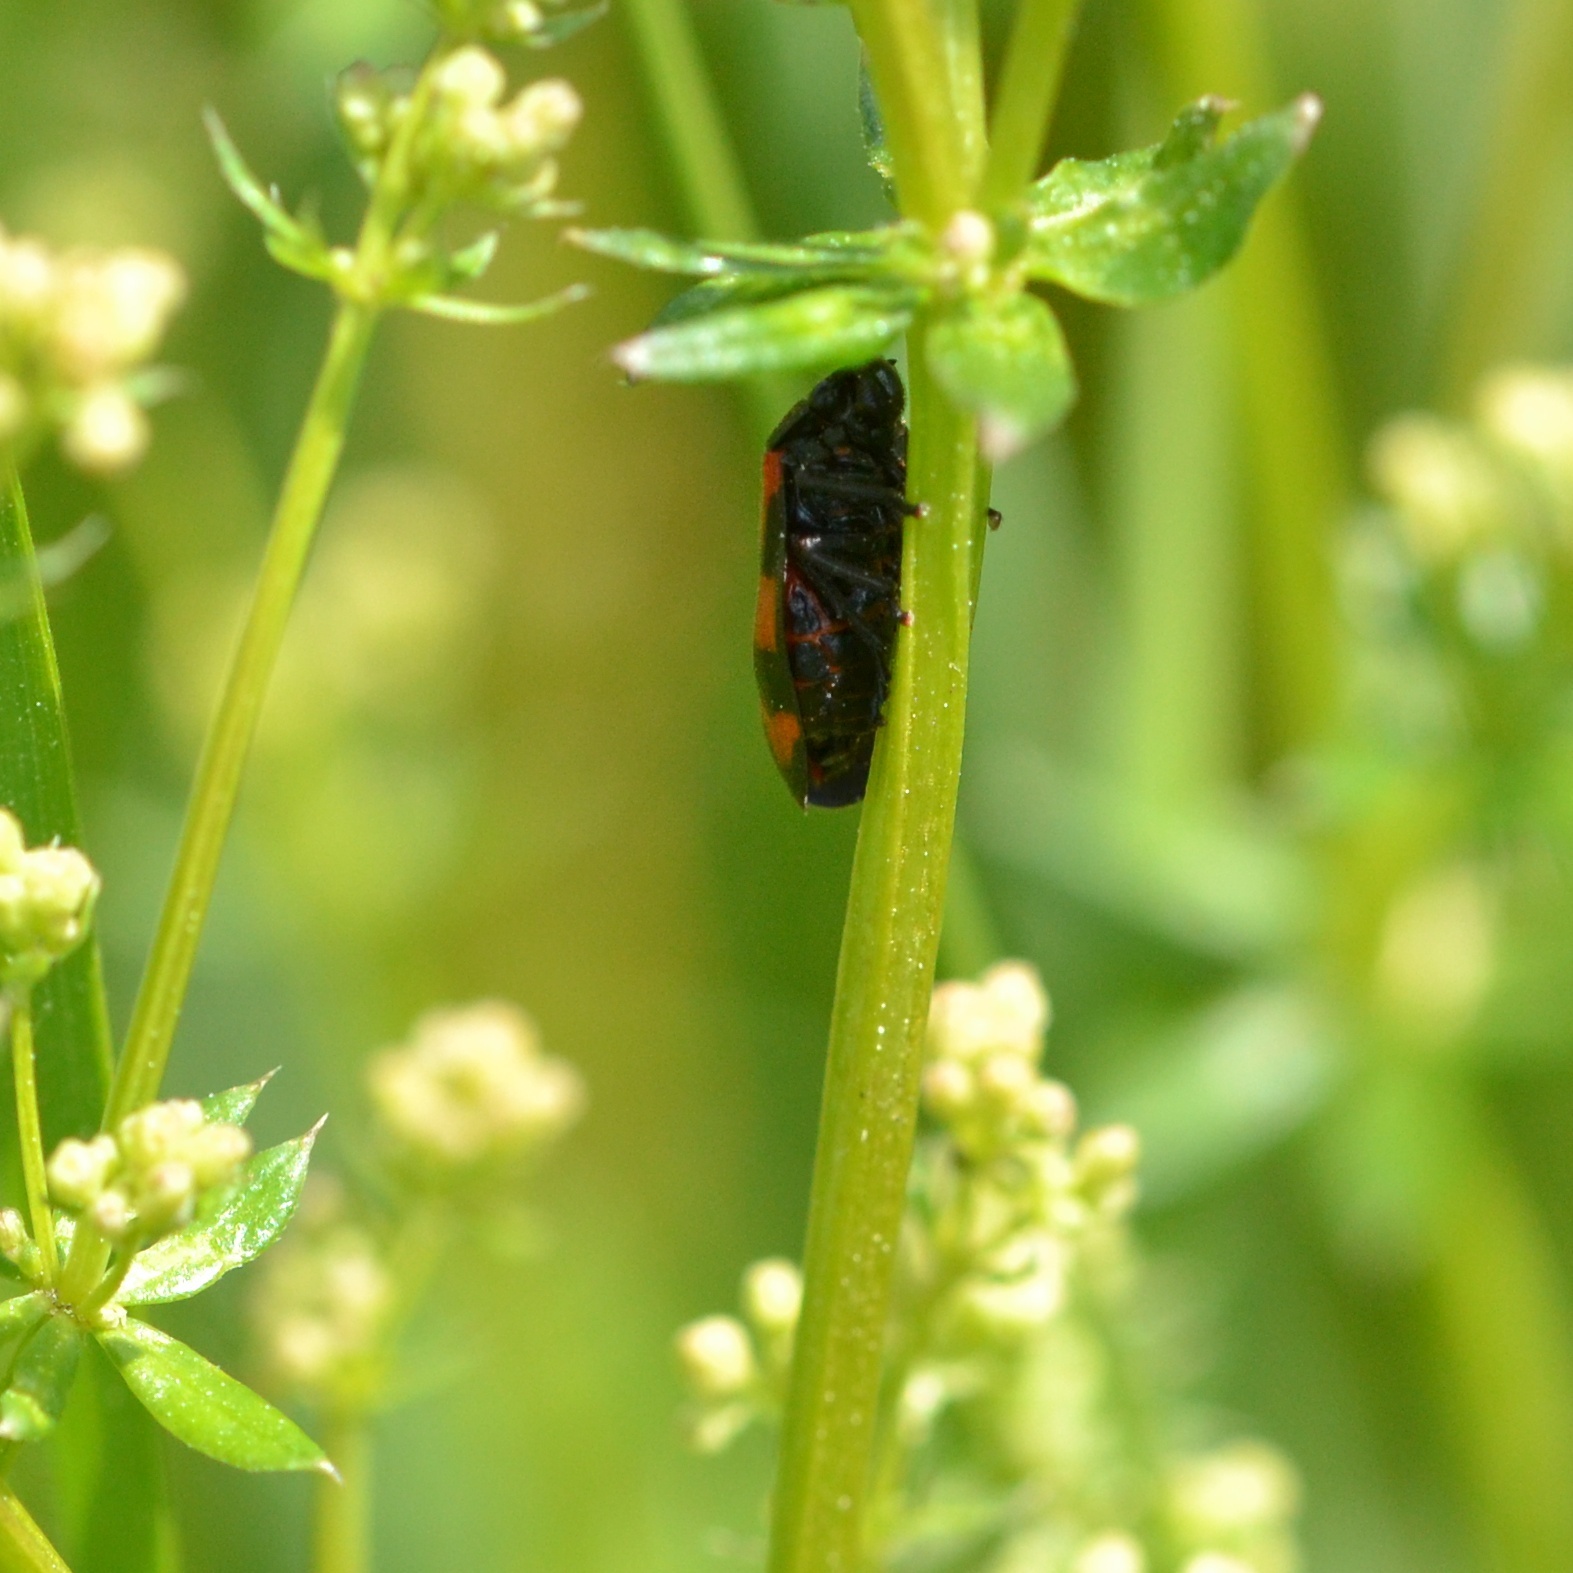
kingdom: Animalia
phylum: Arthropoda
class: Insecta
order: Hemiptera
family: Cercopidae
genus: Cercopis
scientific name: Cercopis vulnerata
